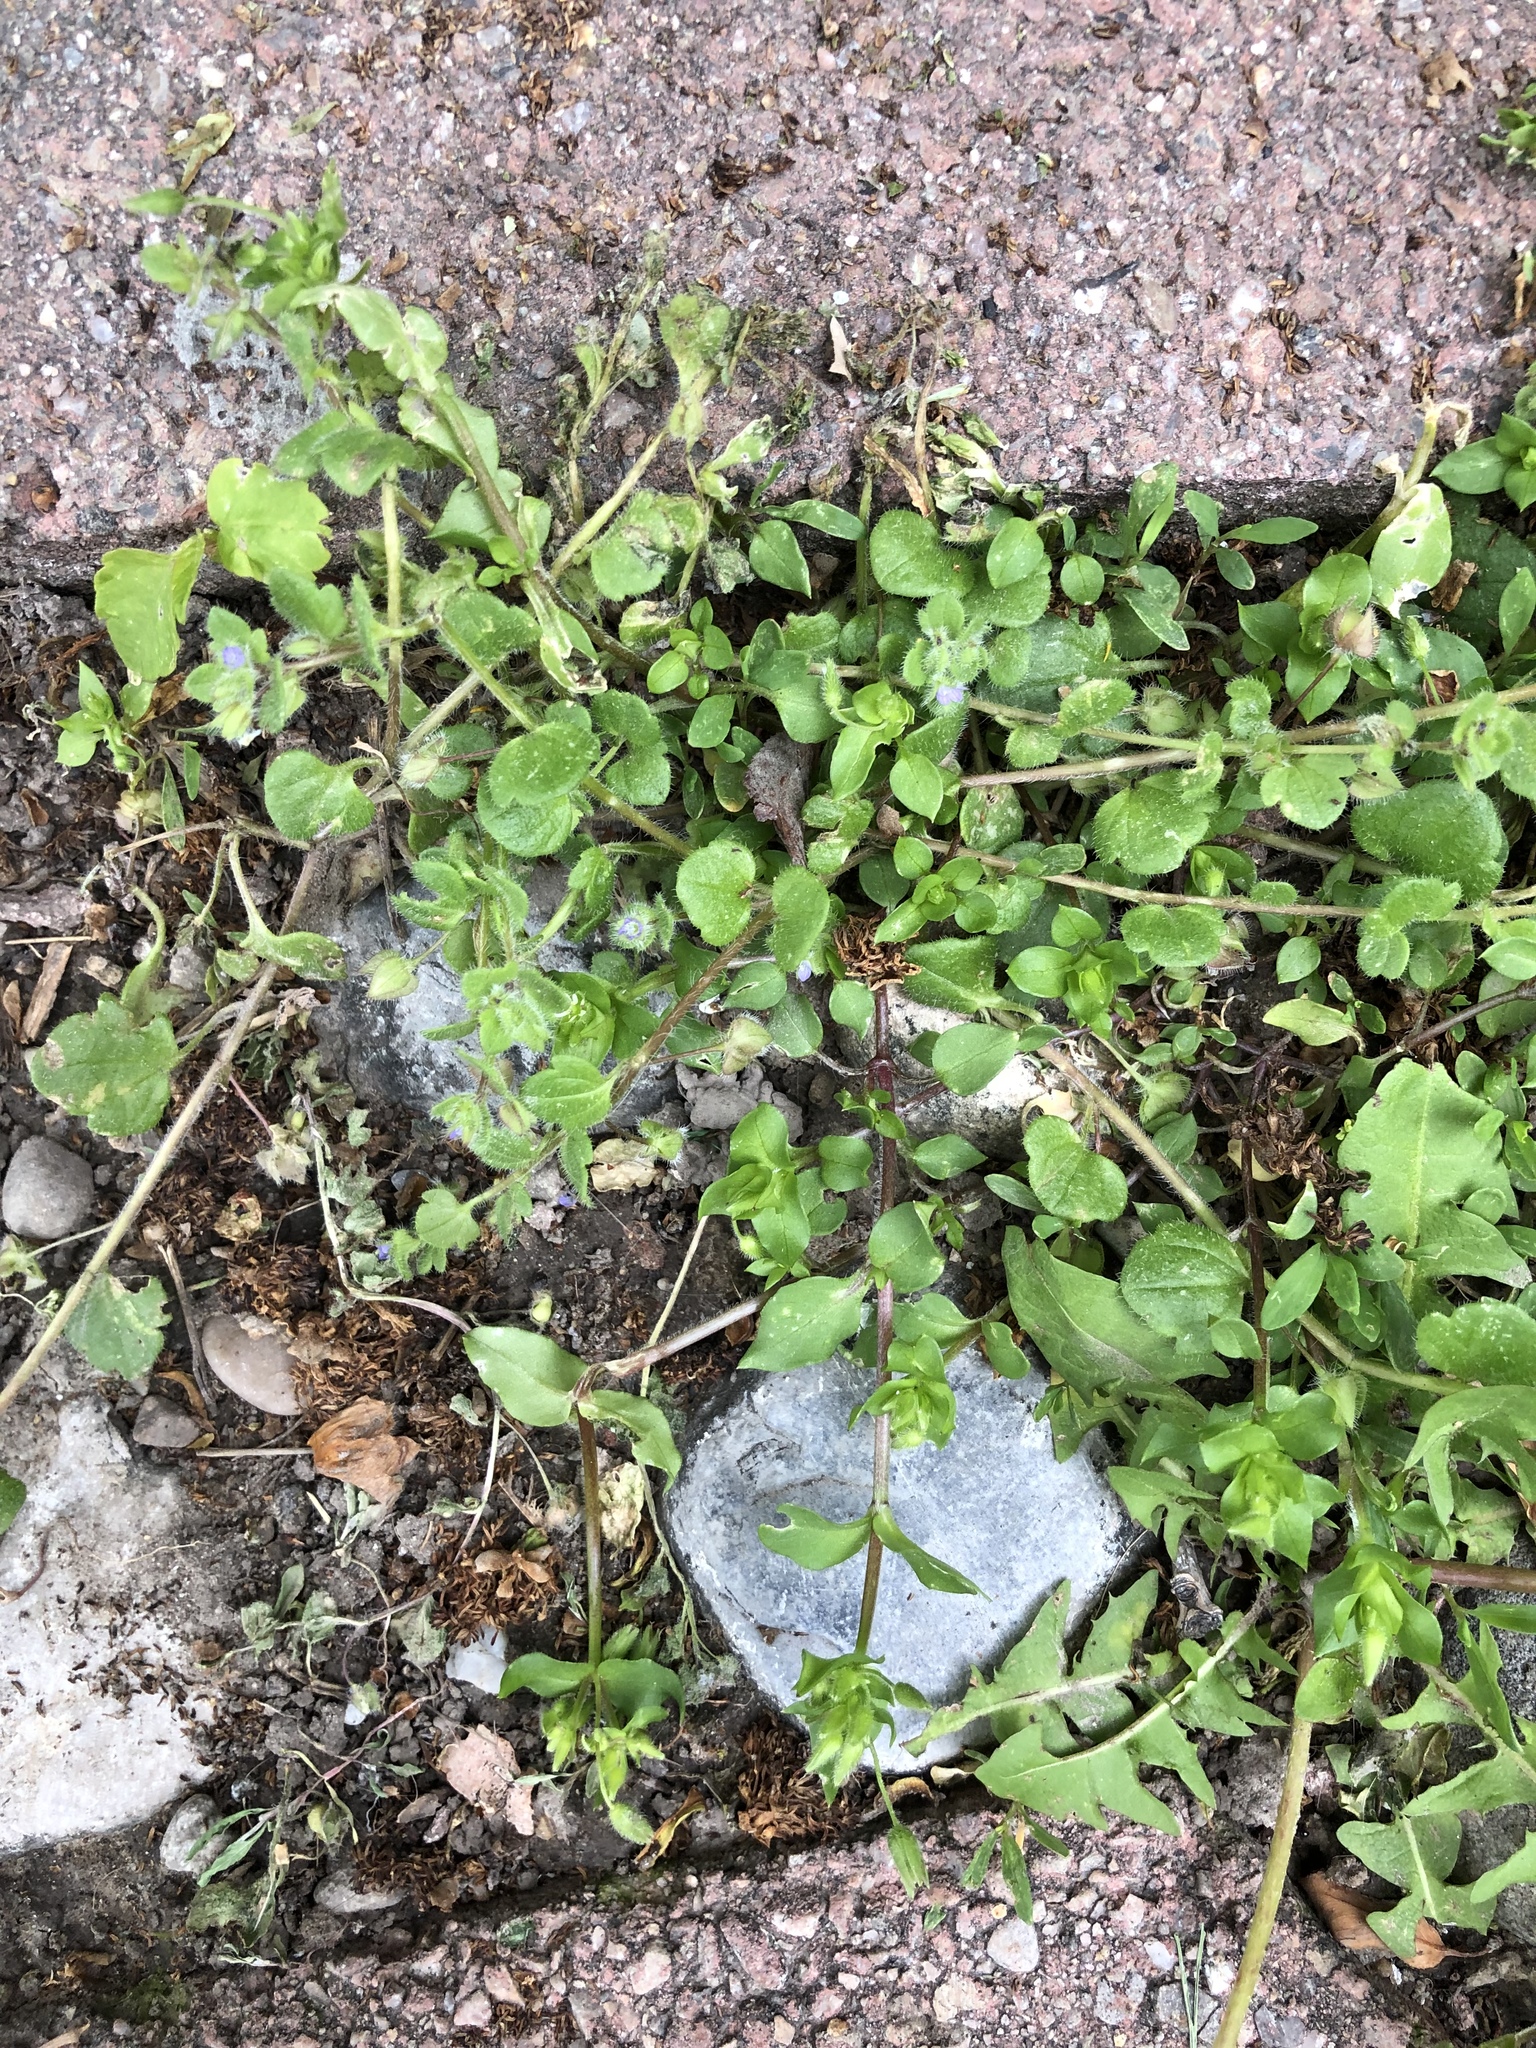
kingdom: Plantae
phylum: Tracheophyta
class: Magnoliopsida
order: Lamiales
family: Plantaginaceae
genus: Veronica
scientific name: Veronica hederifolia
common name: Ivy-leaved speedwell
